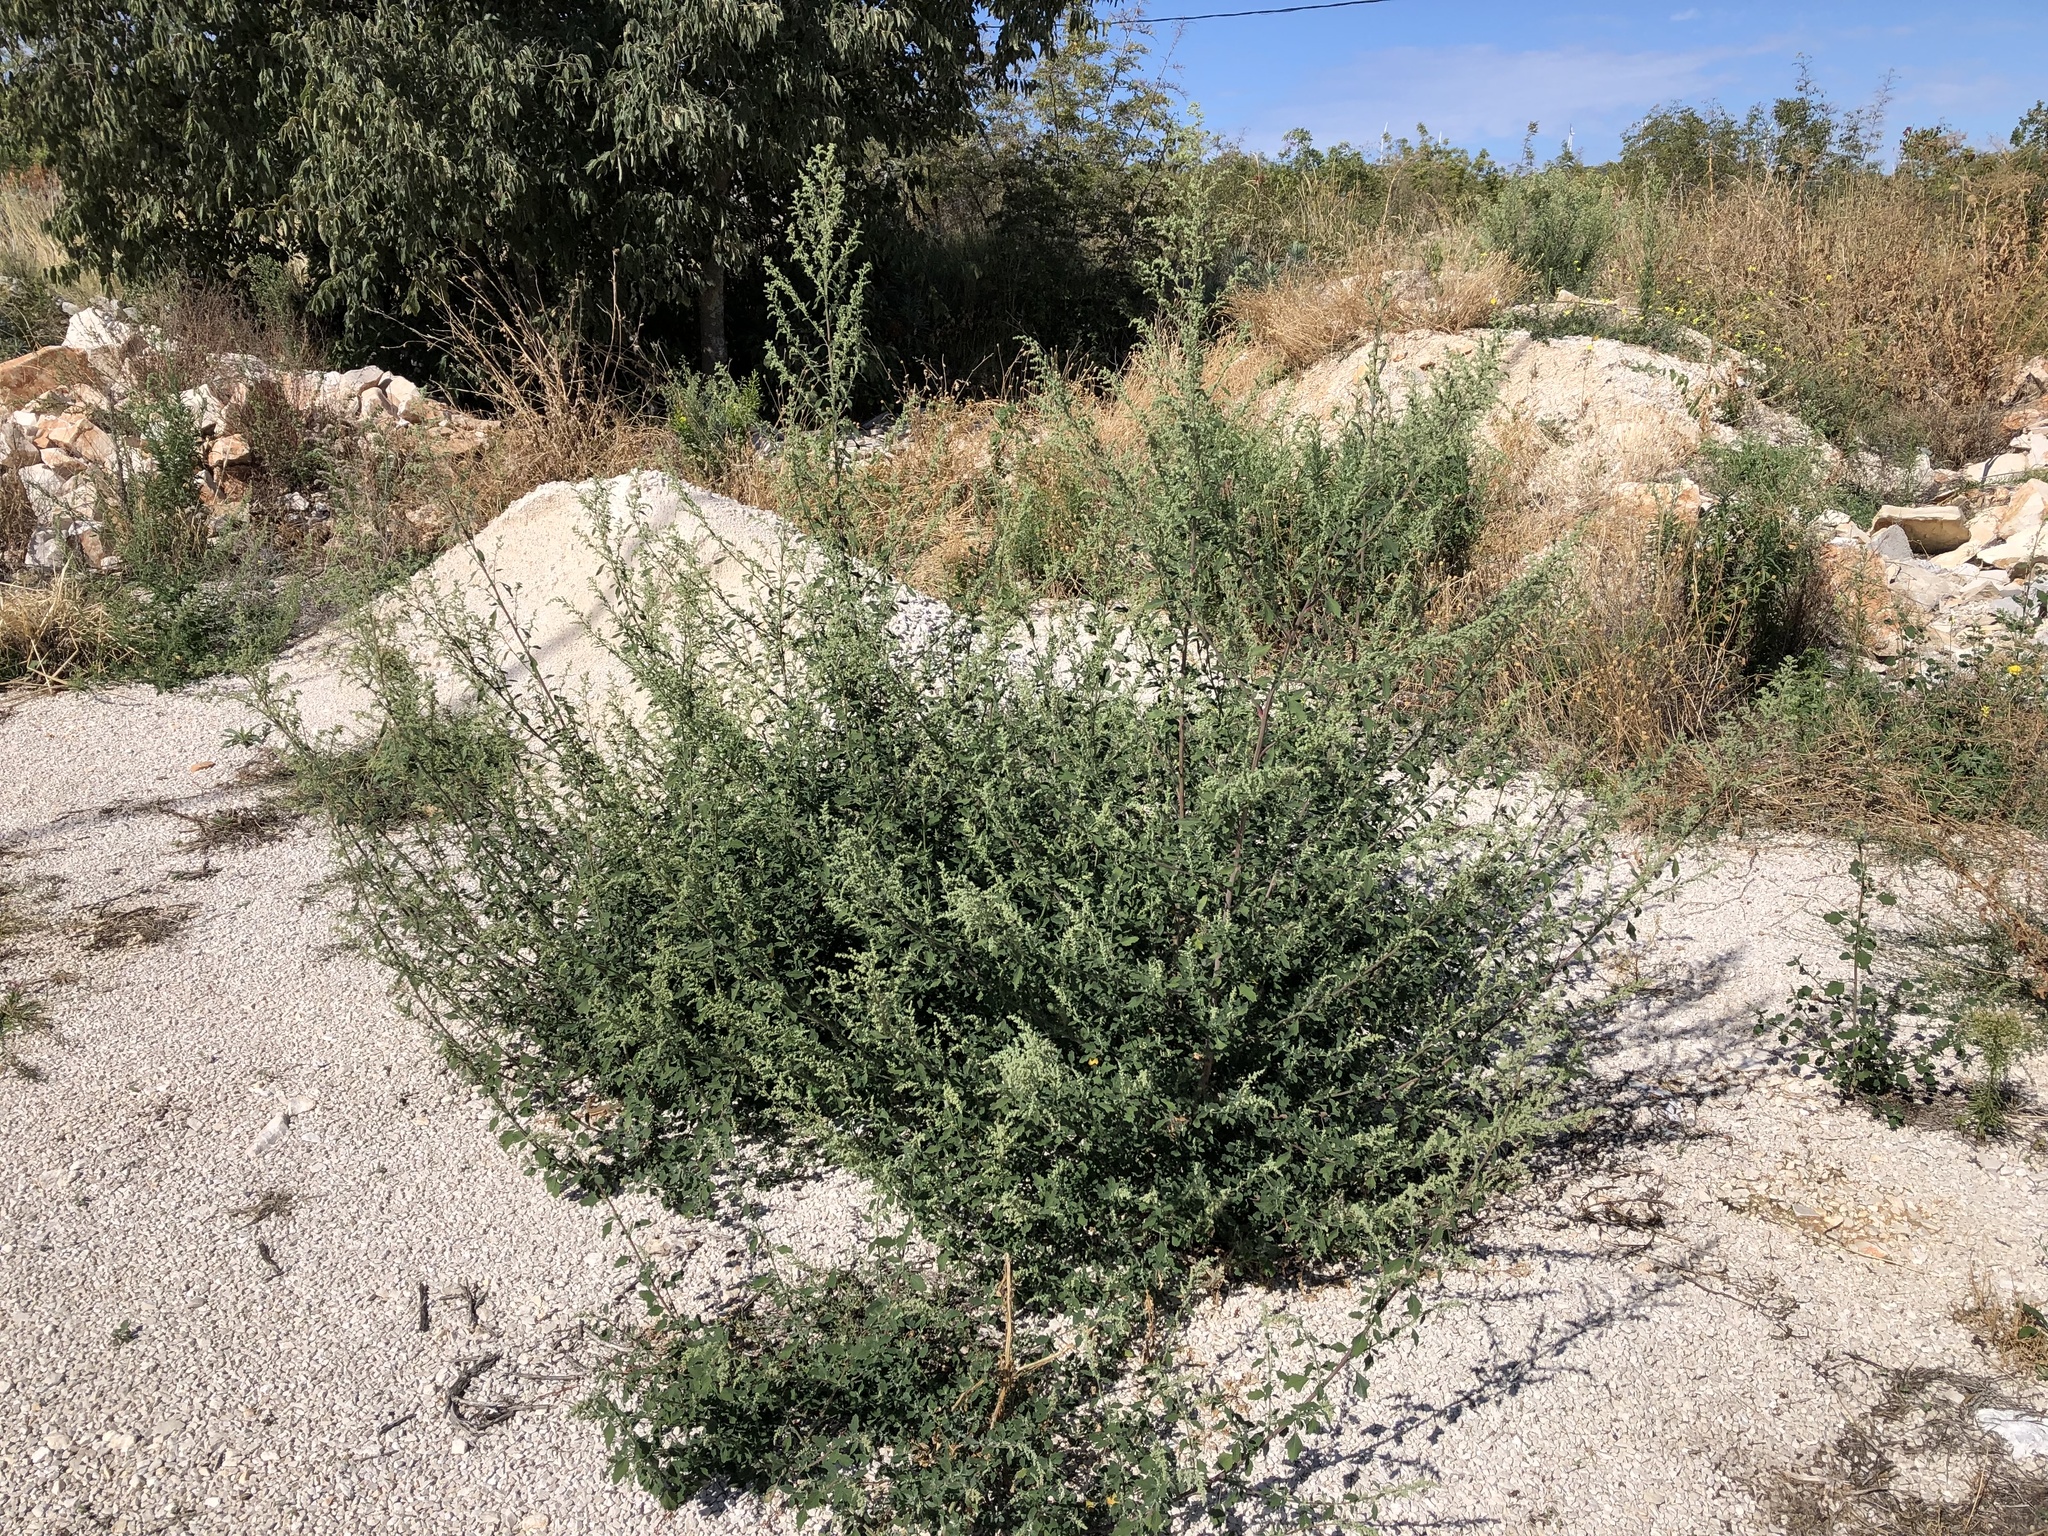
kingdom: Plantae
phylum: Tracheophyta
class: Magnoliopsida
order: Caryophyllales
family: Amaranthaceae
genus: Chenopodium
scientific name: Chenopodium album
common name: Fat-hen
